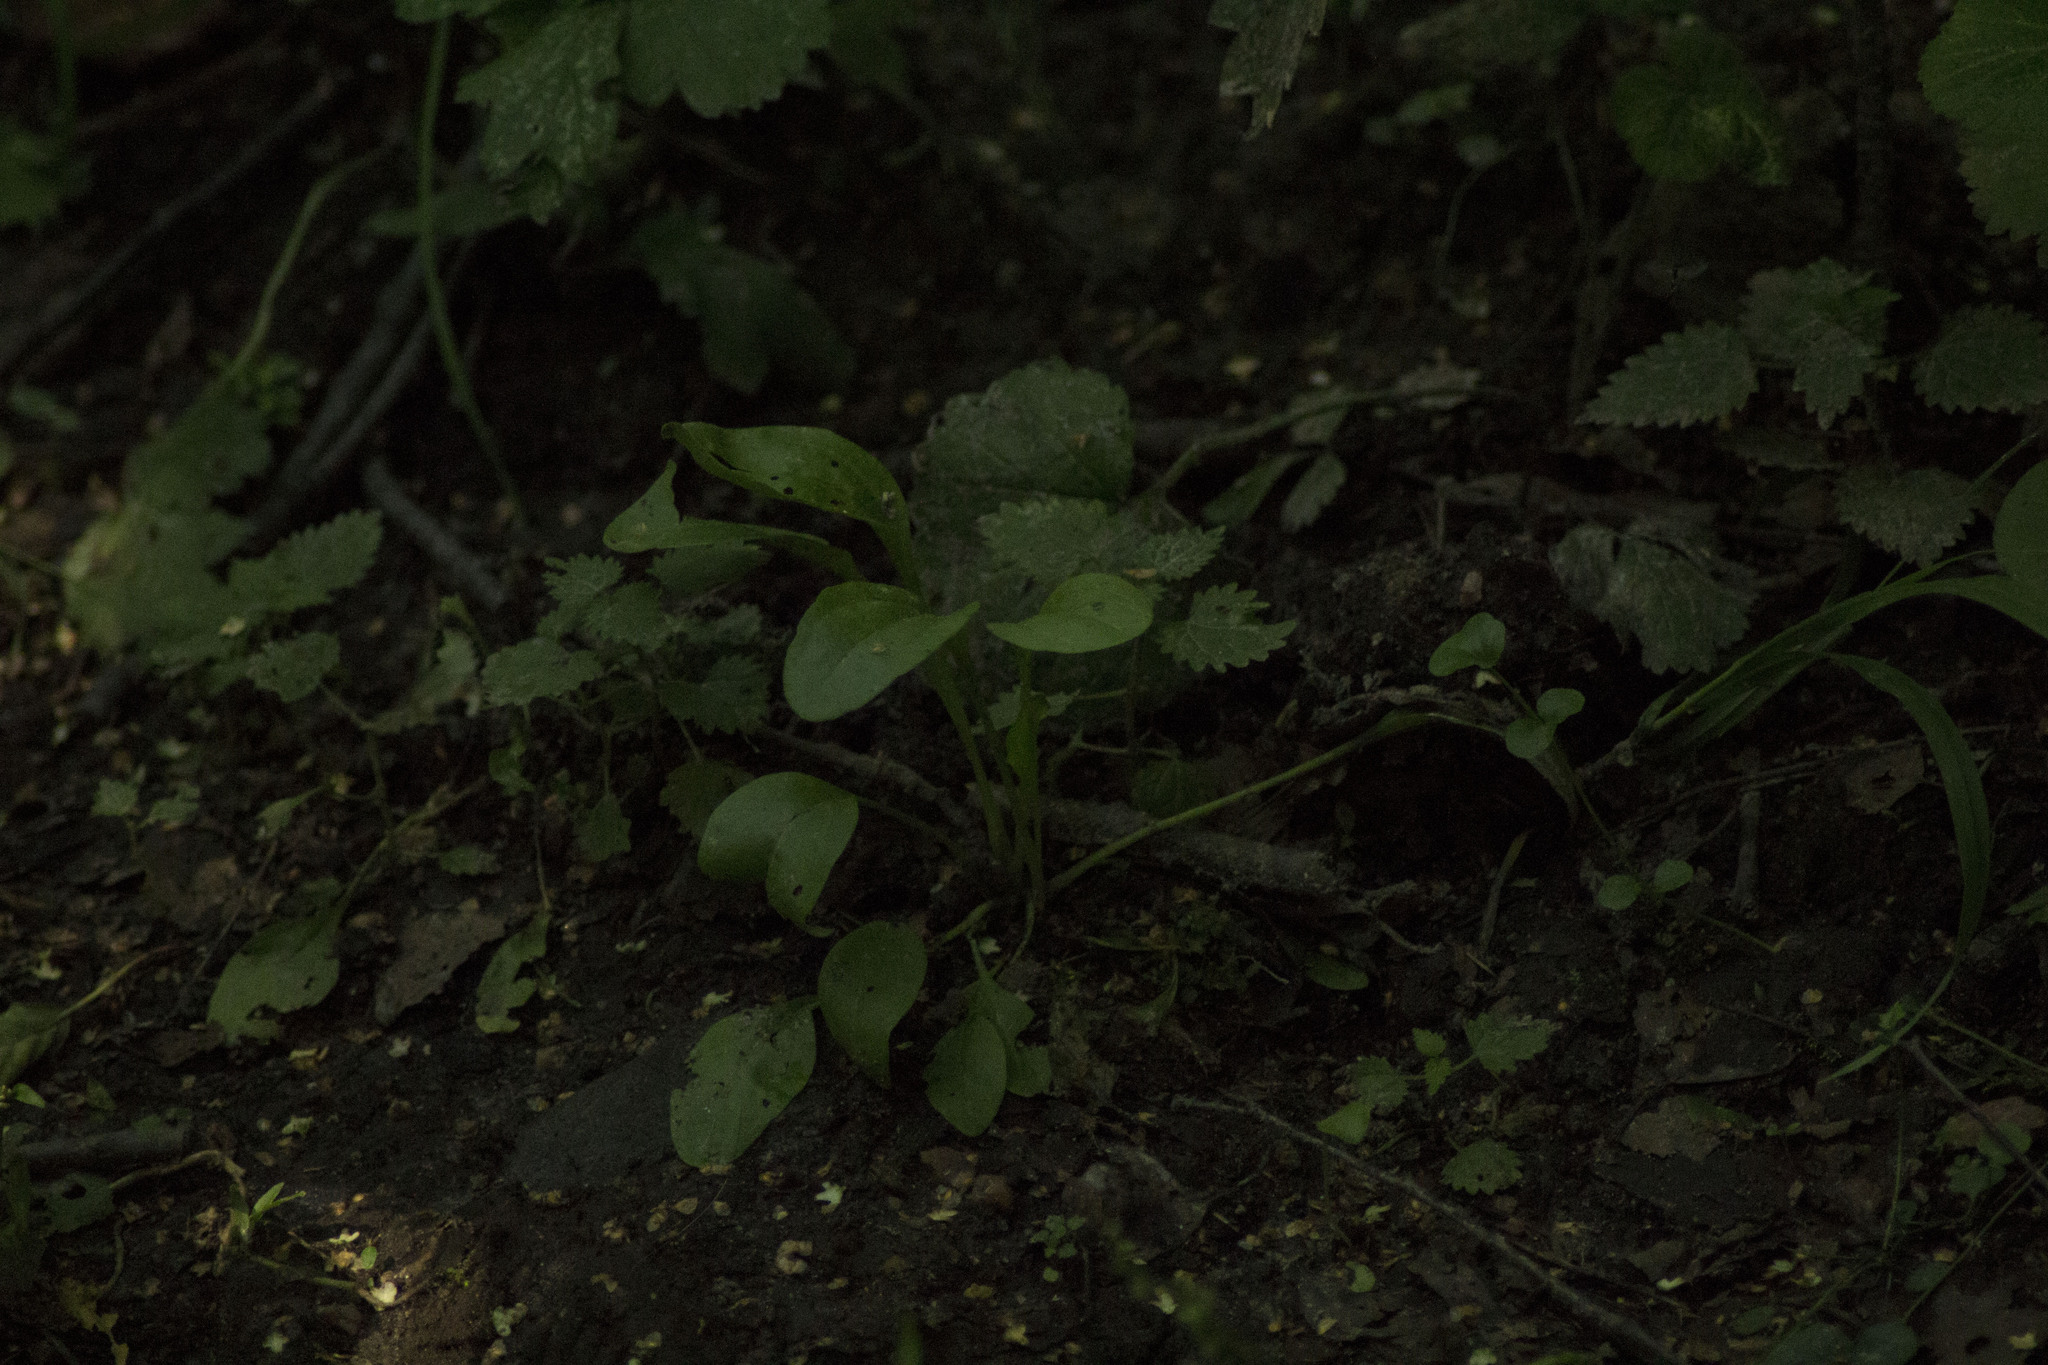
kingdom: Plantae
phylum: Tracheophyta
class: Magnoliopsida
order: Lamiales
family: Plantaginaceae
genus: Plantago
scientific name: Plantago major
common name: Common plantain
